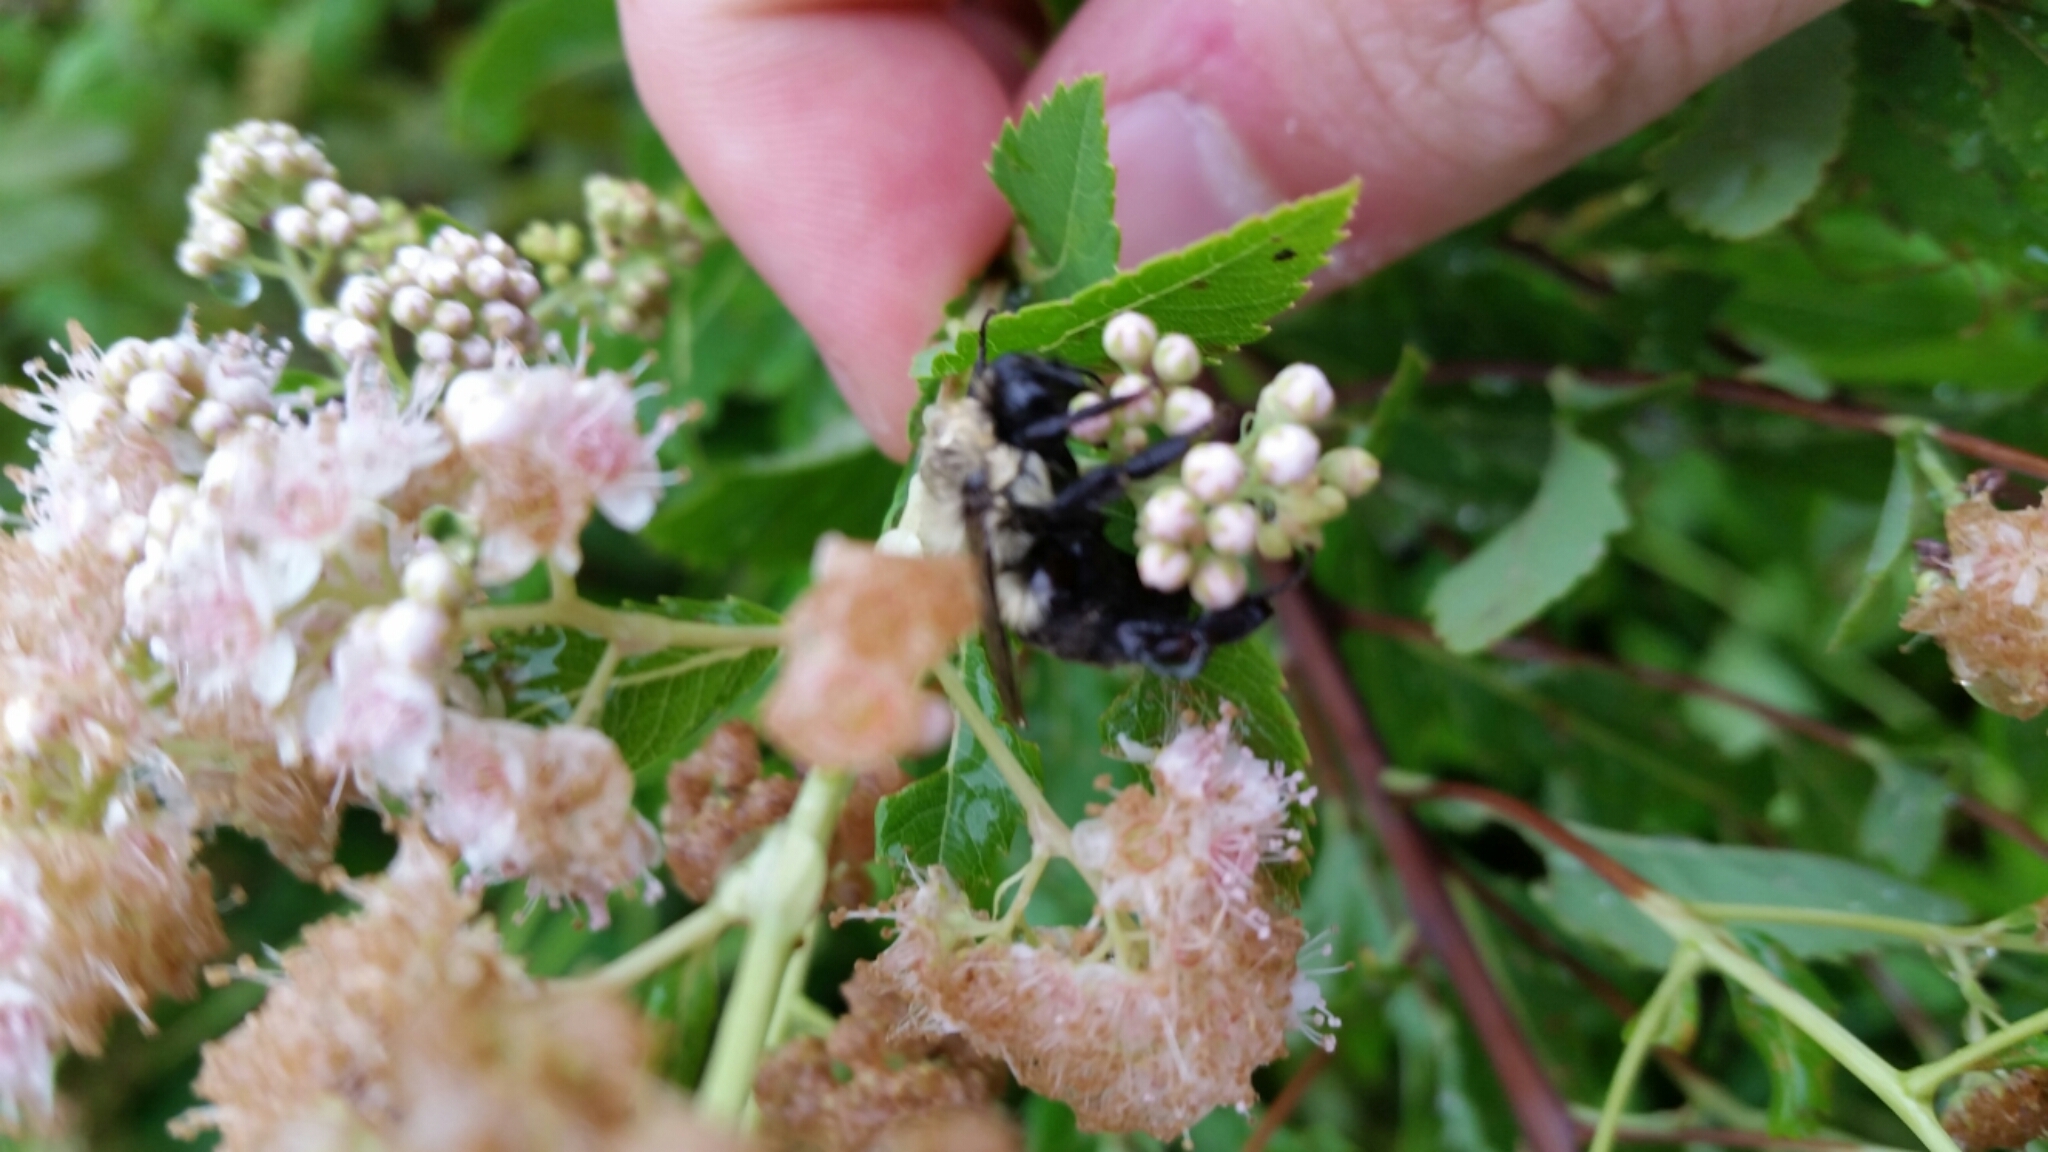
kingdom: Animalia
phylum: Arthropoda
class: Insecta
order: Hymenoptera
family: Apidae
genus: Bombus
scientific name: Bombus impatiens
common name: Common eastern bumble bee
